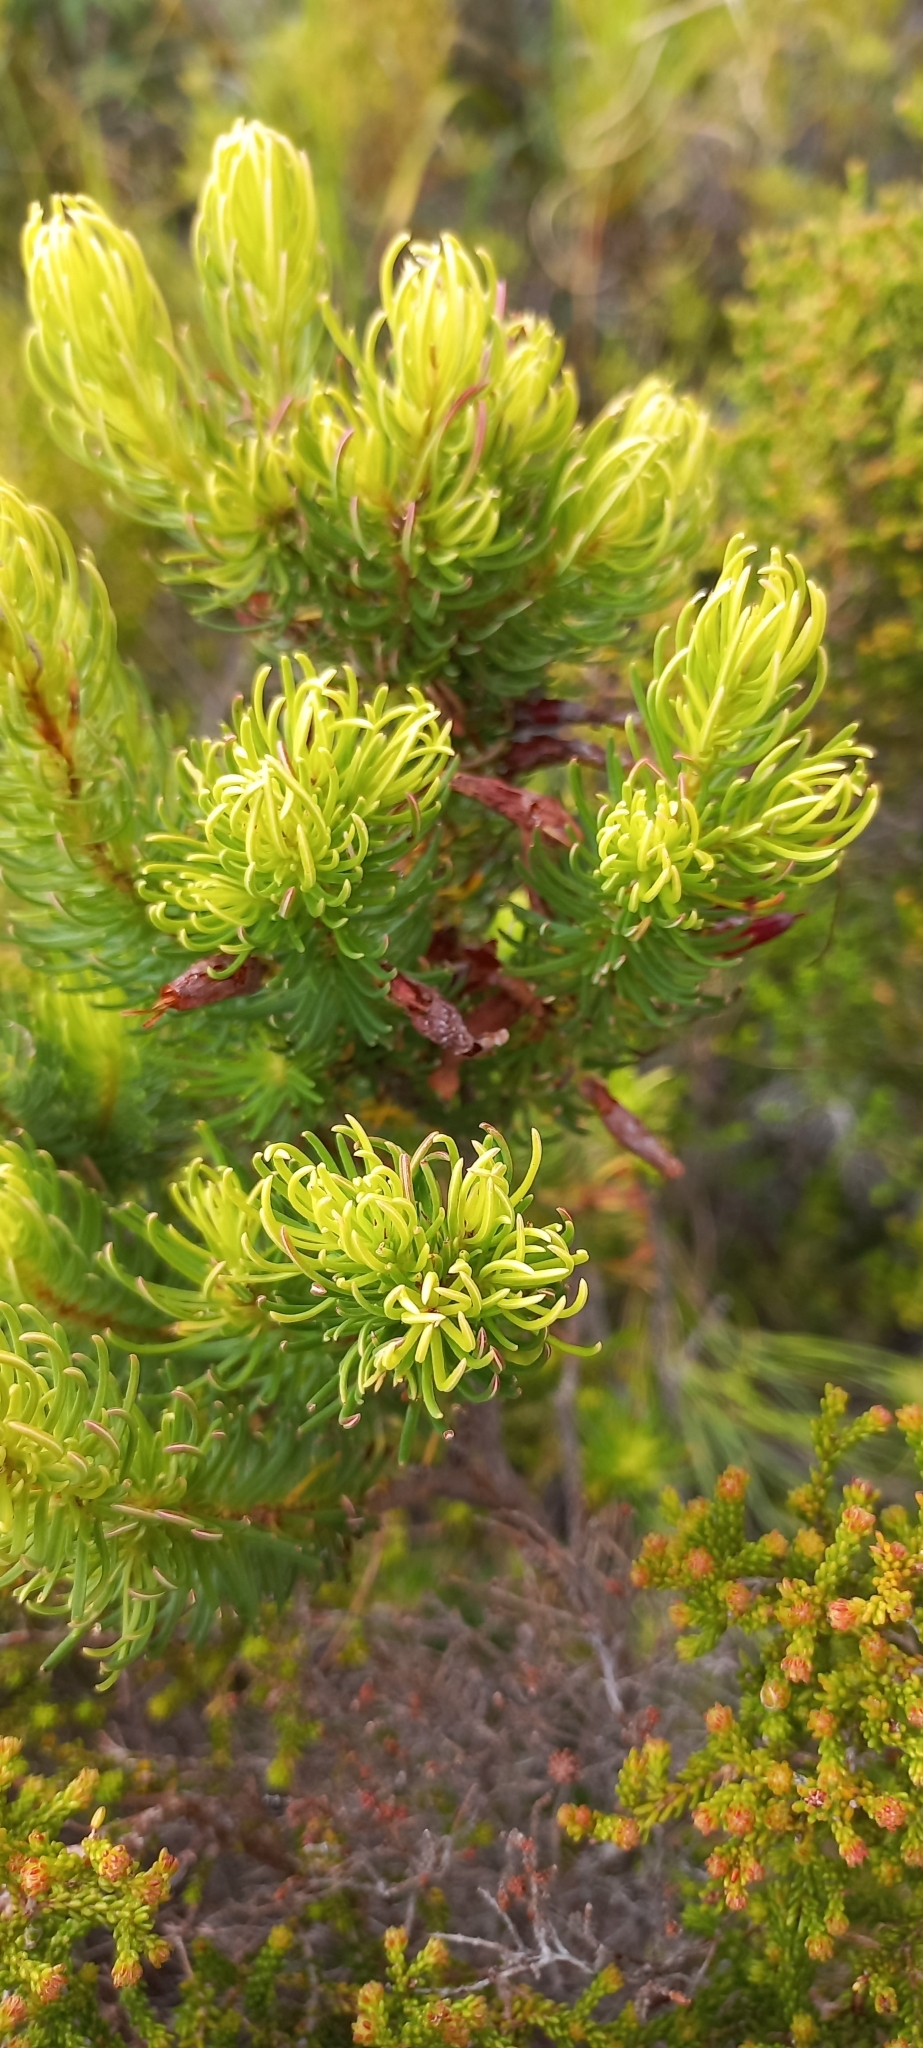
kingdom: Plantae
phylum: Tracheophyta
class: Magnoliopsida
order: Ericales
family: Ericaceae
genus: Erica
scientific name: Erica plukenetii
